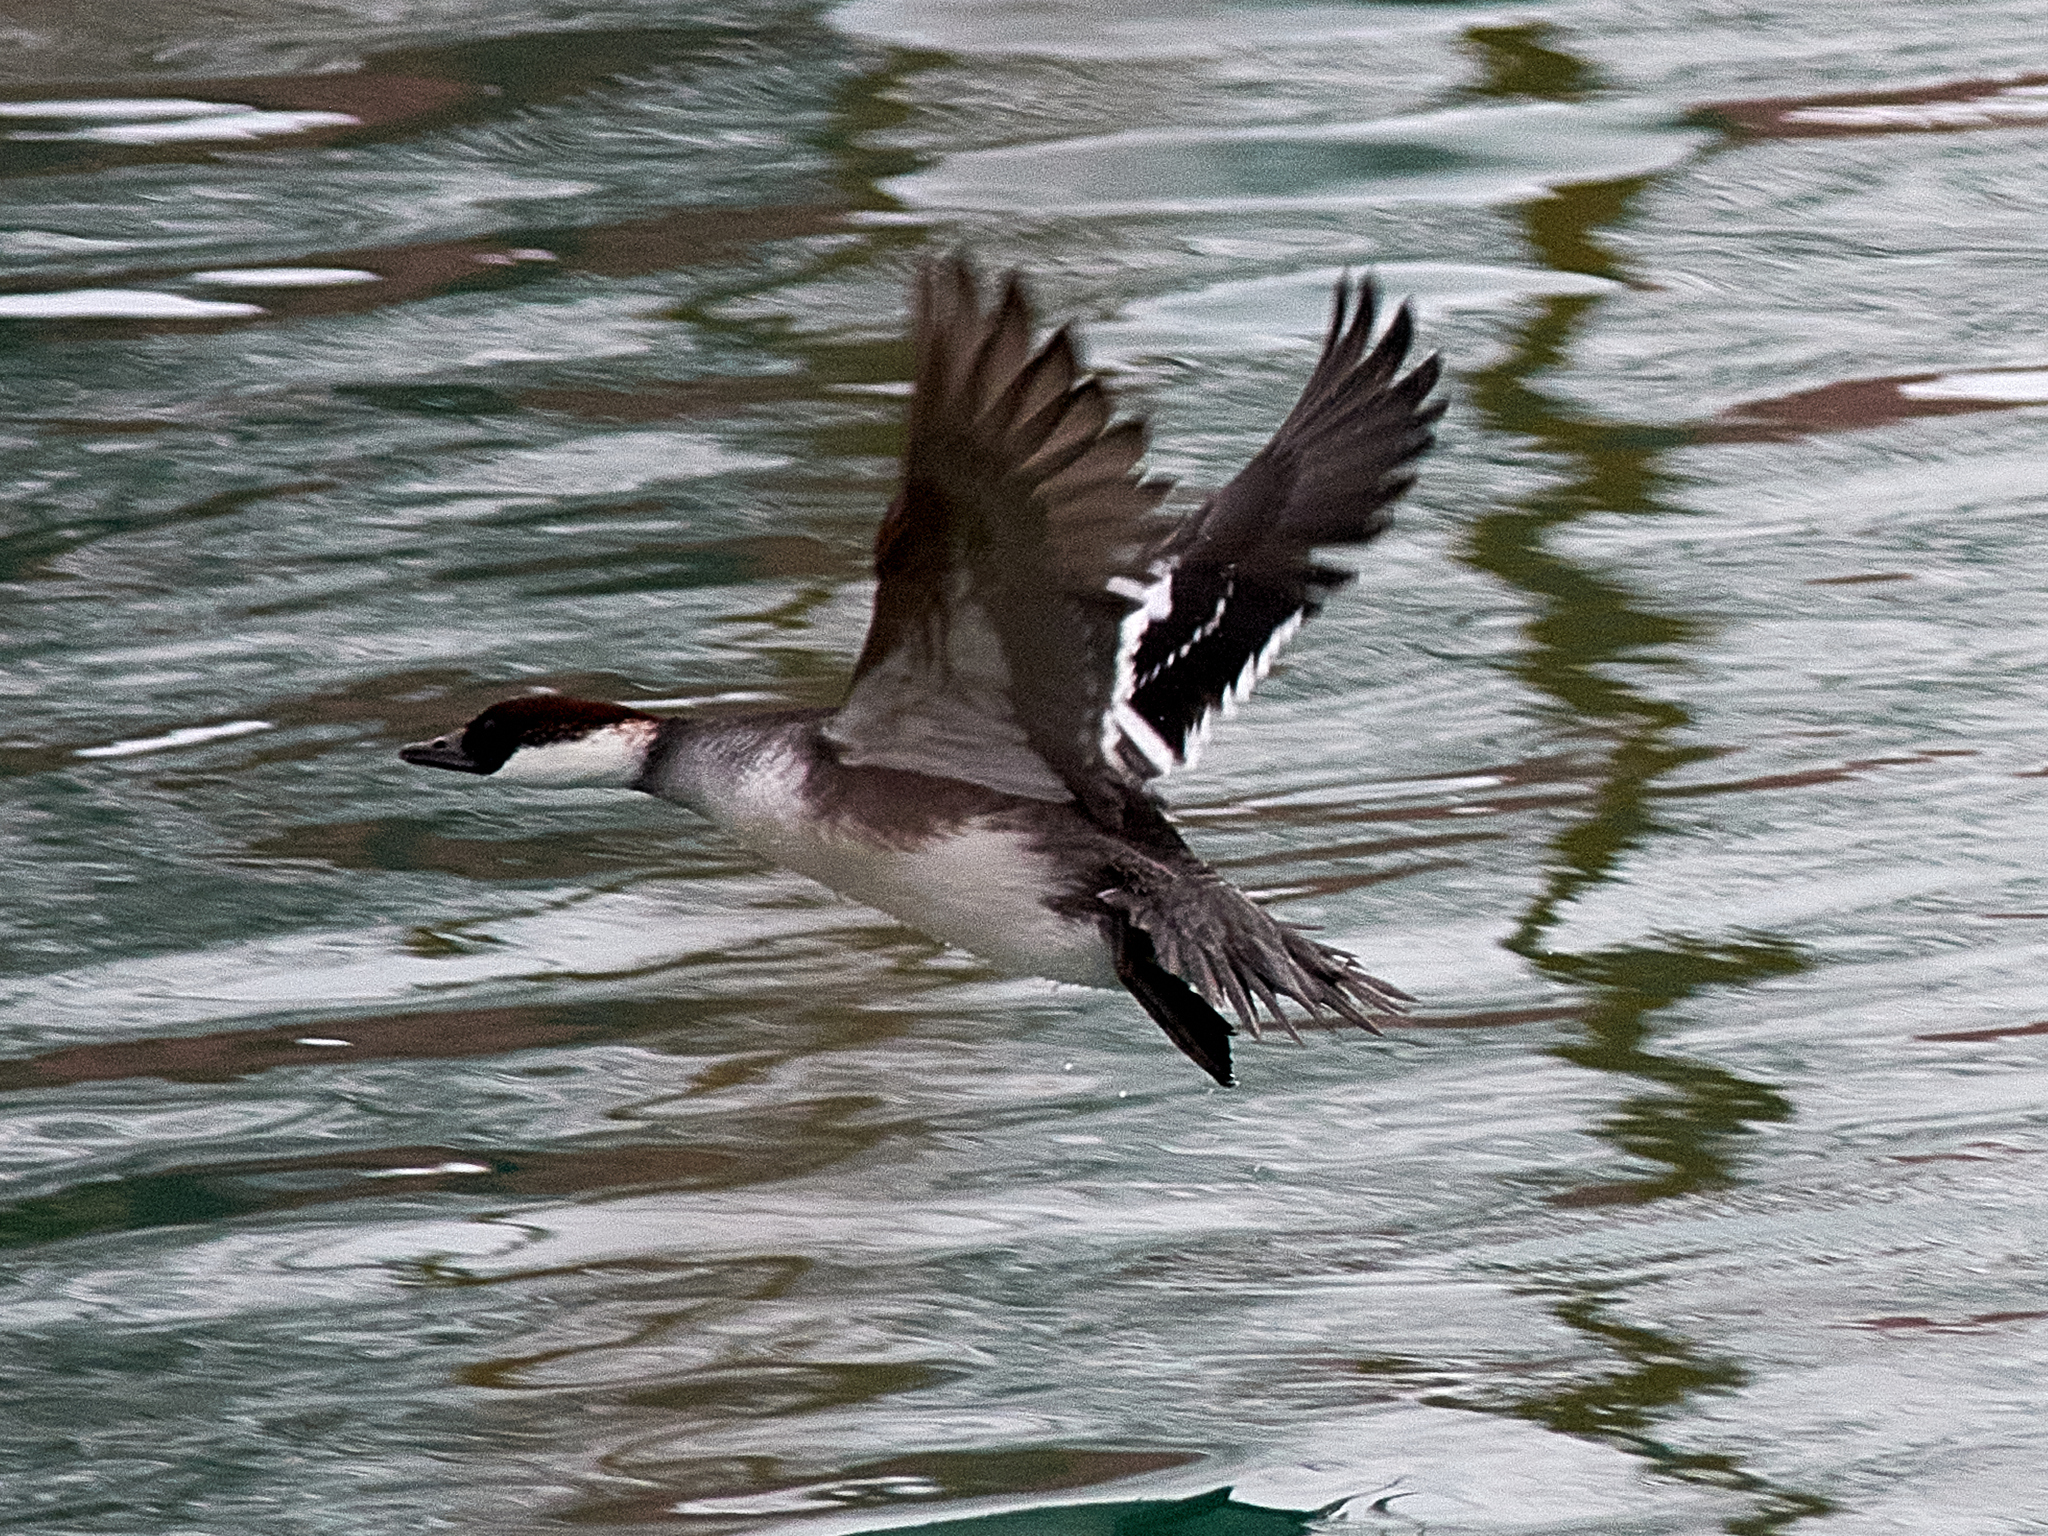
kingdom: Animalia
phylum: Chordata
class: Aves
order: Anseriformes
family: Anatidae
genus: Mergellus
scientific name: Mergellus albellus
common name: Smew
